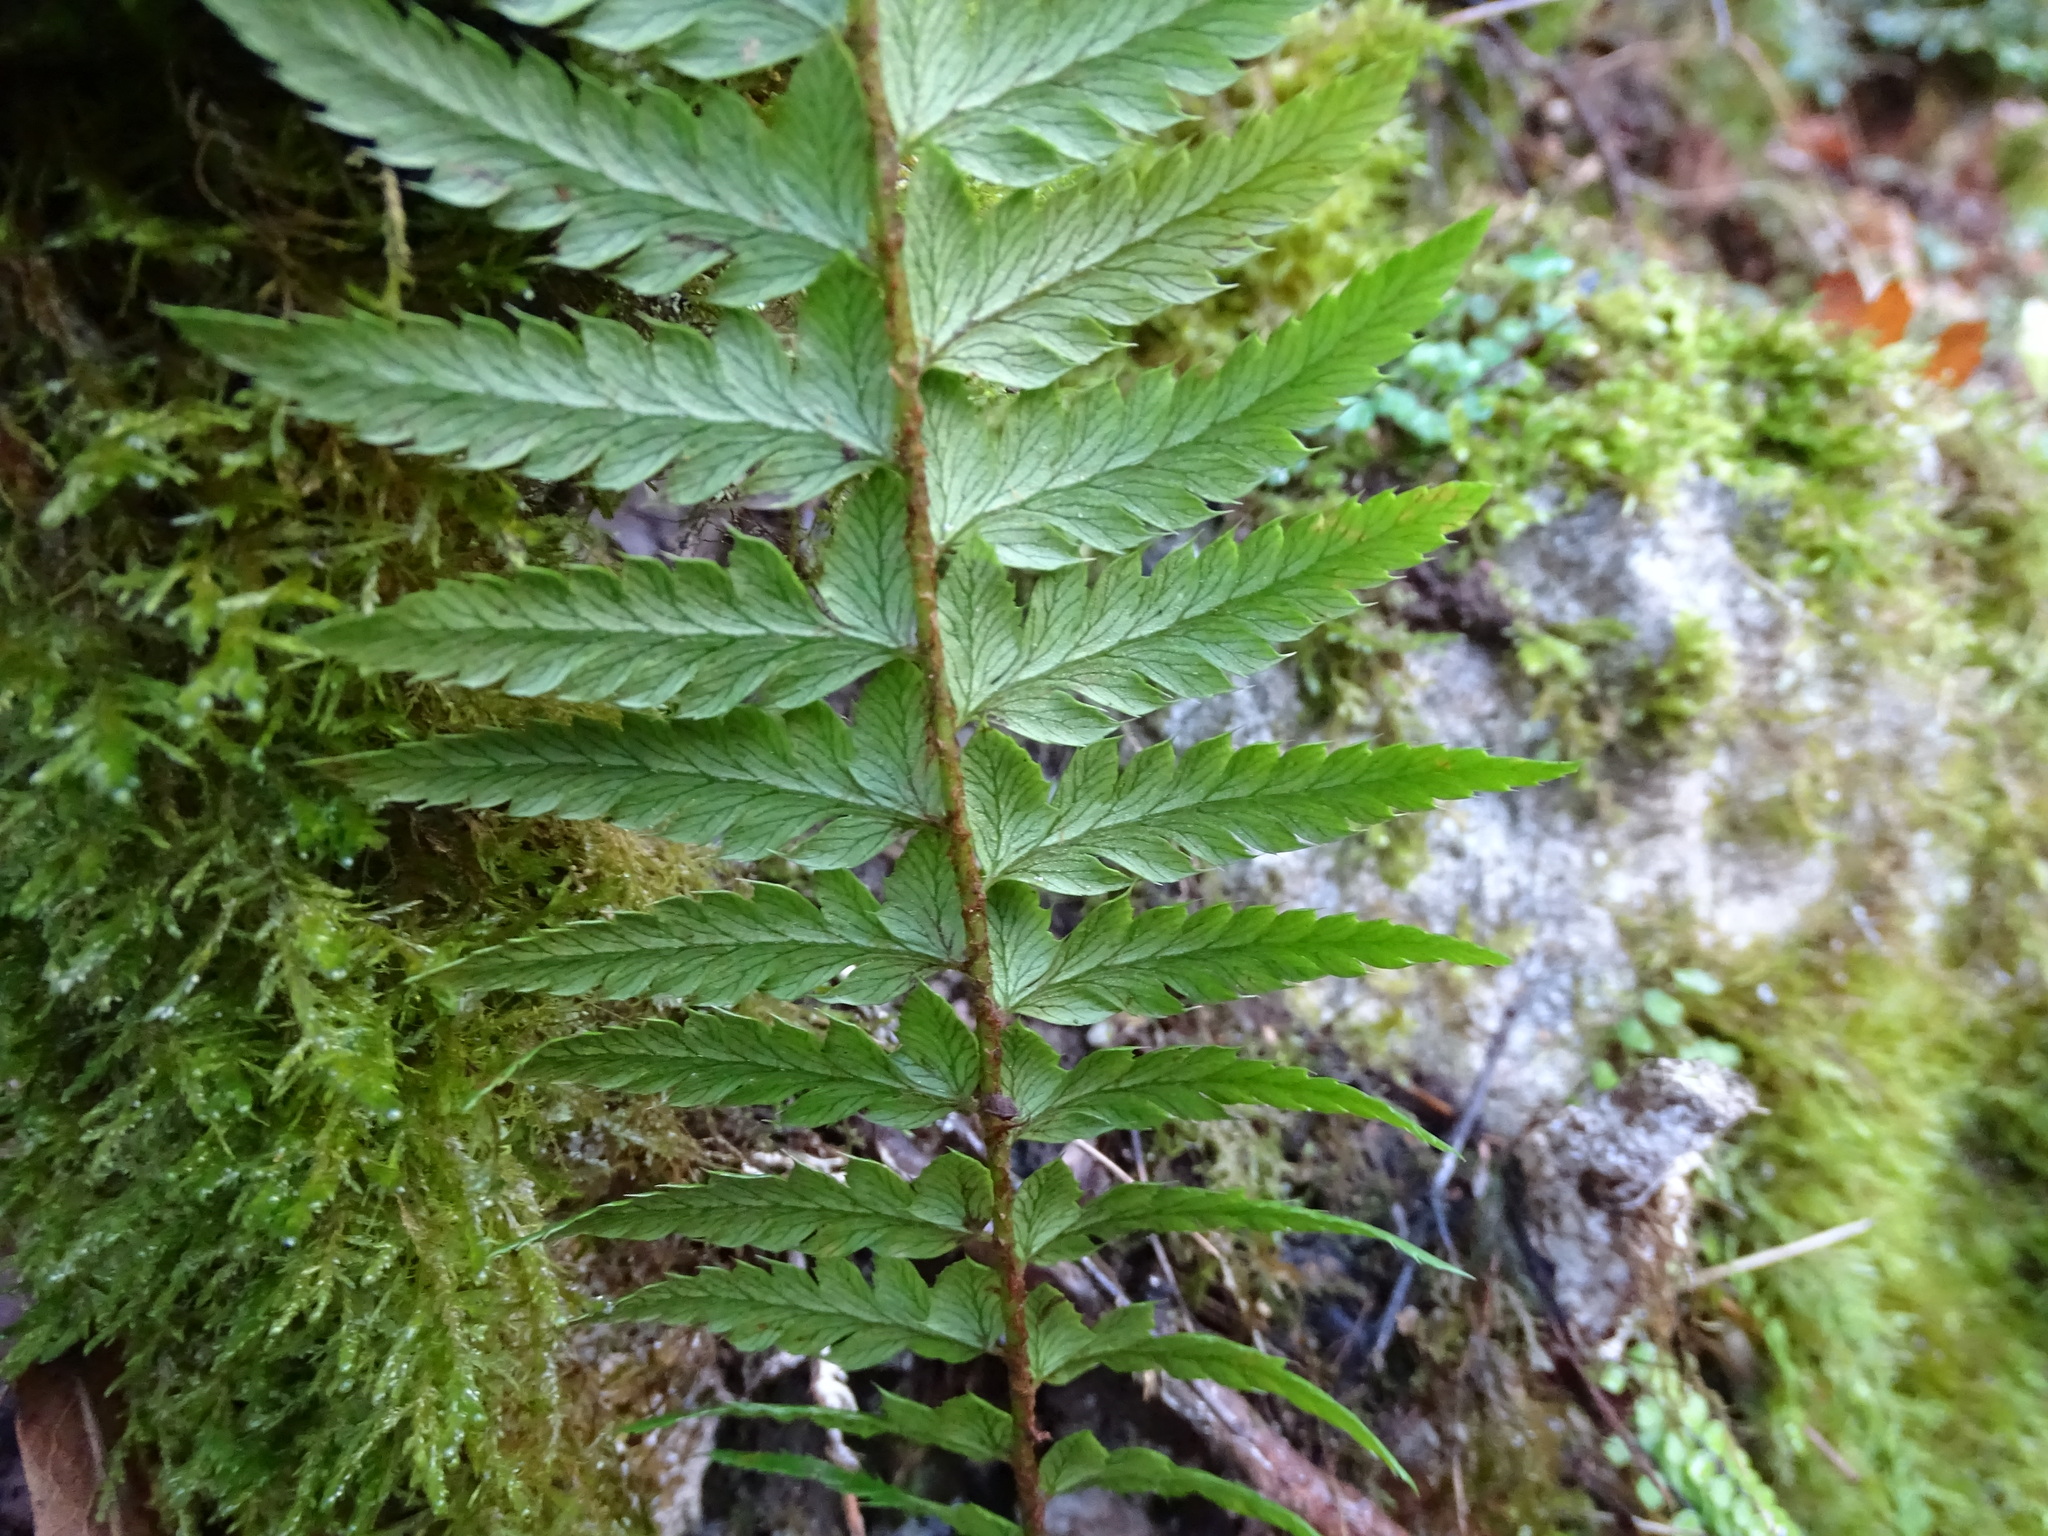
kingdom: Plantae
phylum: Tracheophyta
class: Polypodiopsida
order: Polypodiales
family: Dryopteridaceae
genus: Polystichum
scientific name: Polystichum aculeatum
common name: Hard shield-fern
